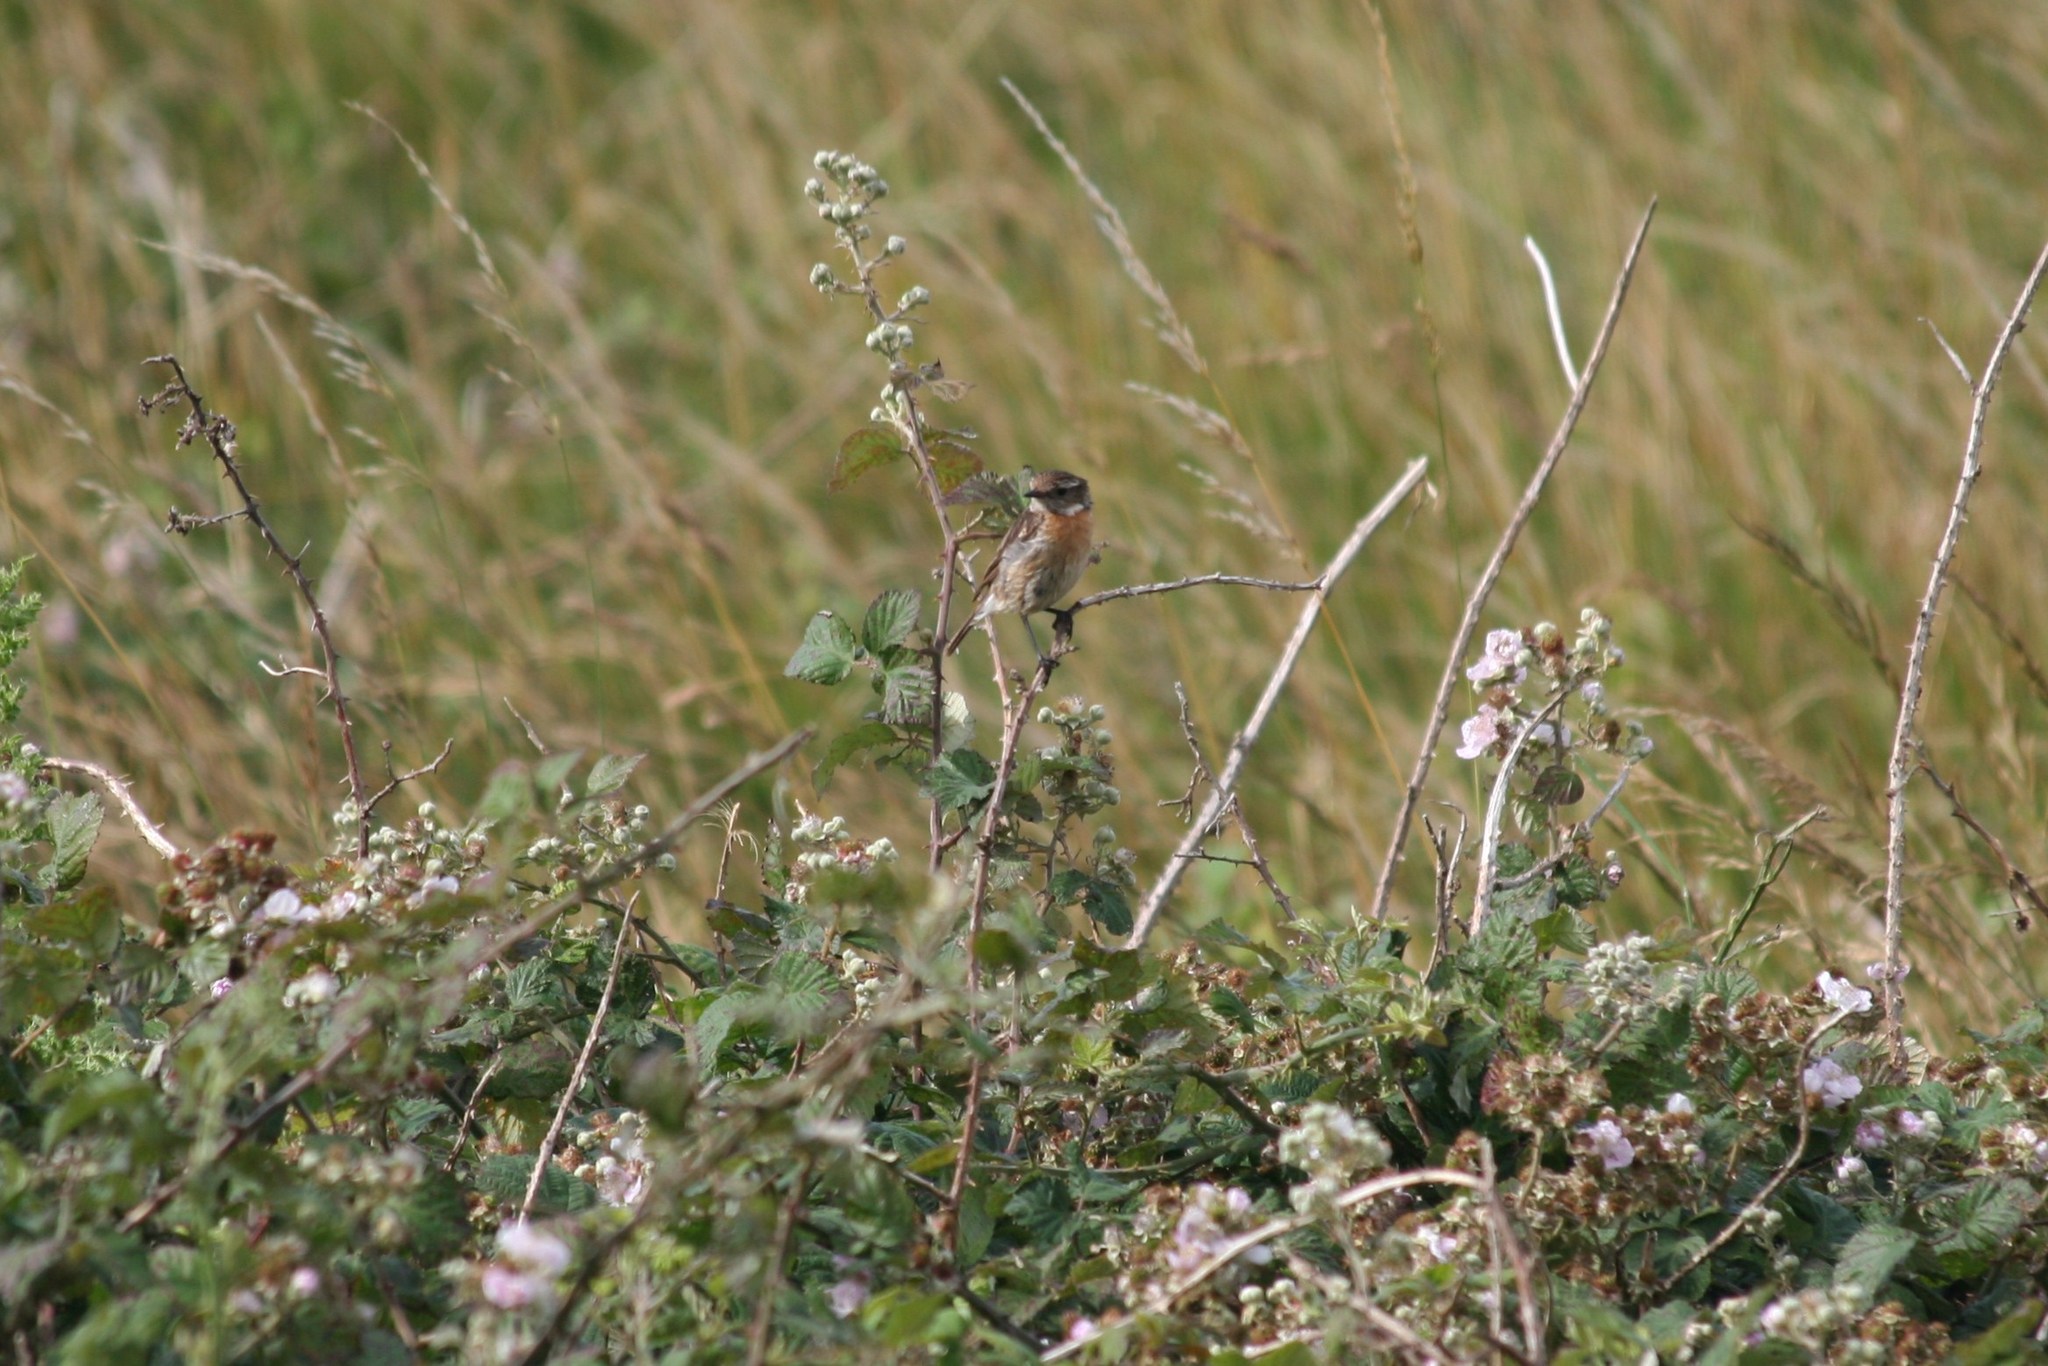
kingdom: Animalia
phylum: Chordata
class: Aves
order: Passeriformes
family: Muscicapidae
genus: Saxicola
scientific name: Saxicola rubetra
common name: Whinchat
